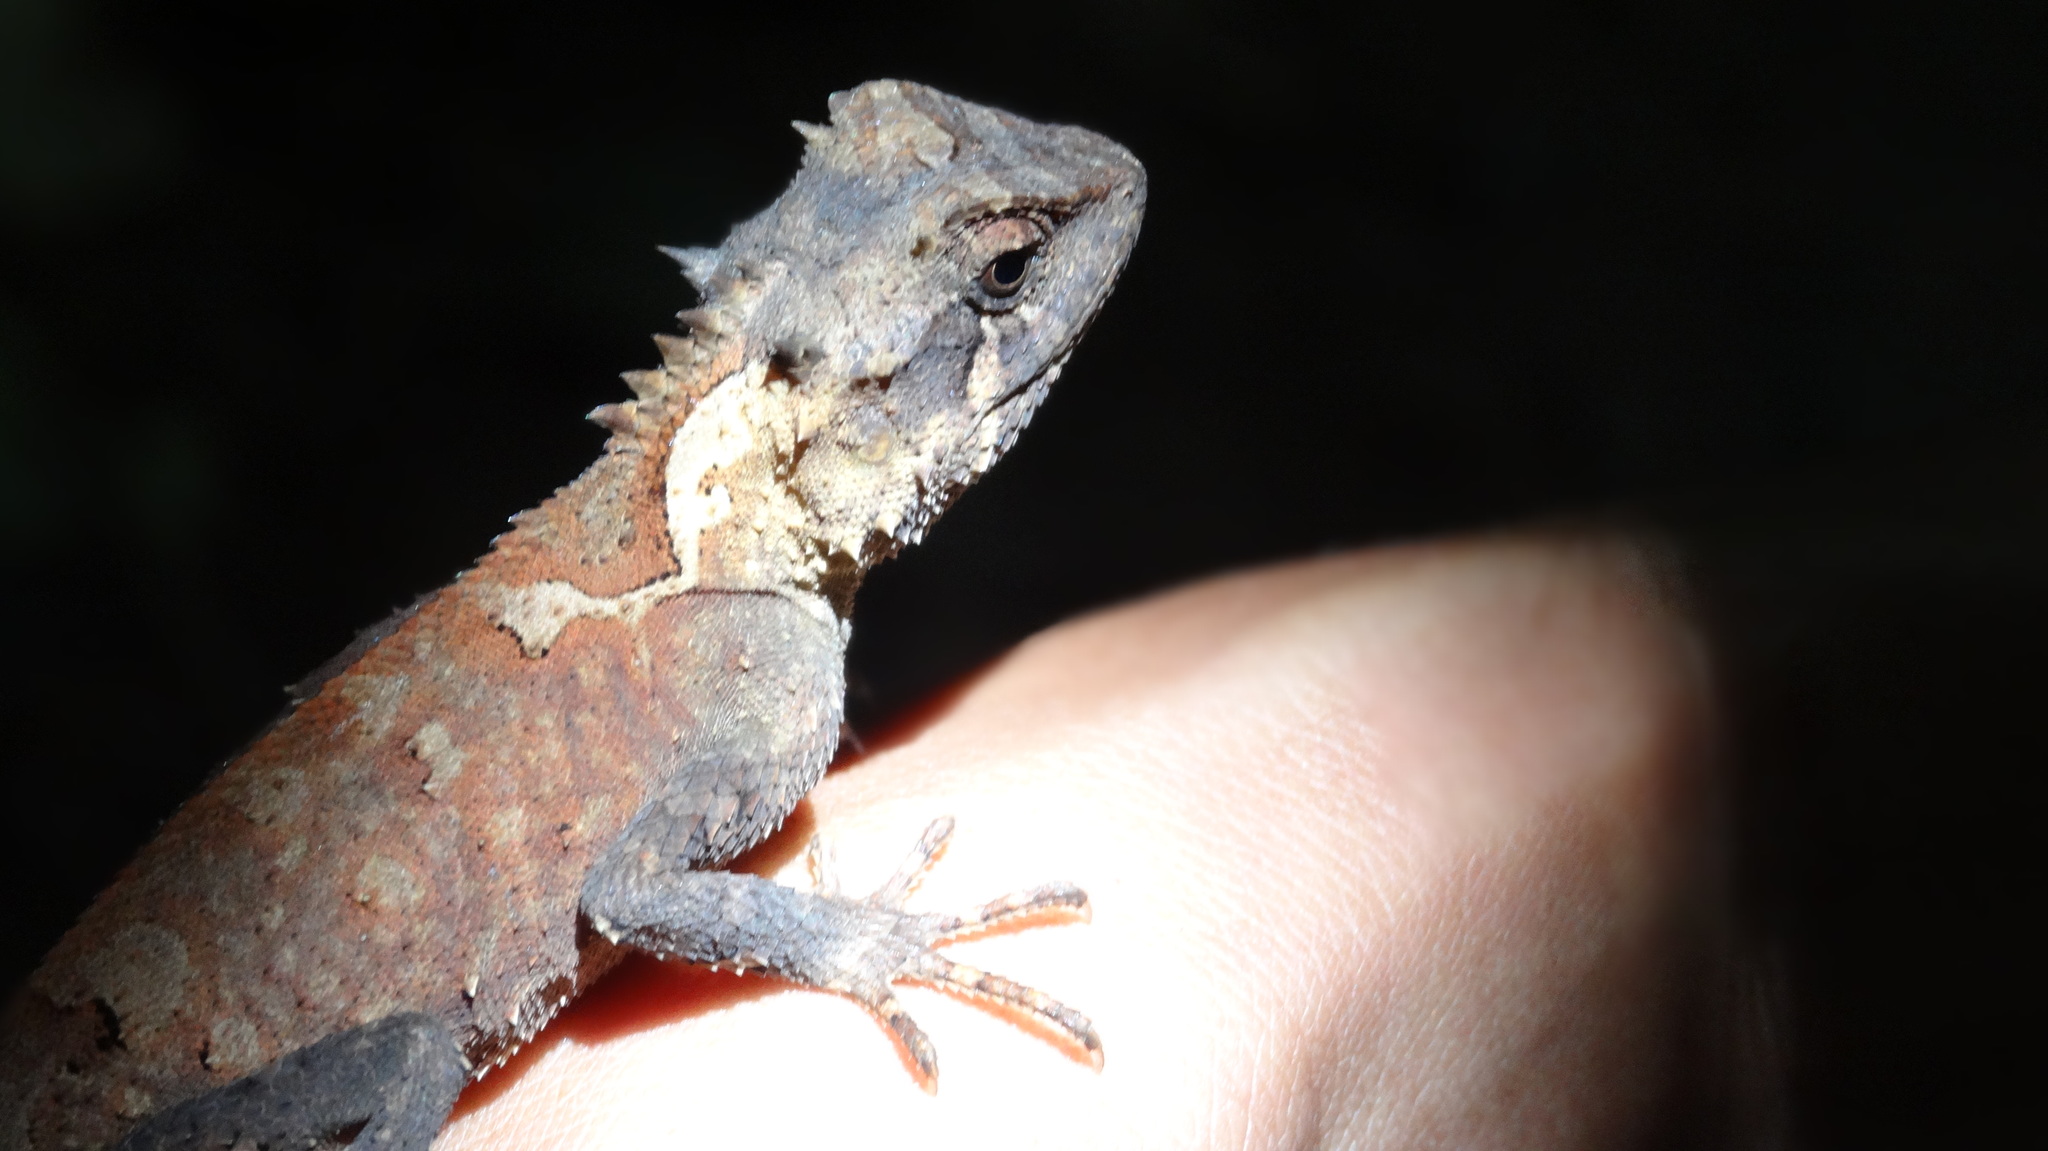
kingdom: Animalia
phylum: Chordata
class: Squamata
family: Agamidae
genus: Acanthosaura
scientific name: Acanthosaura lepidogaster
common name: Brown pricklenape
